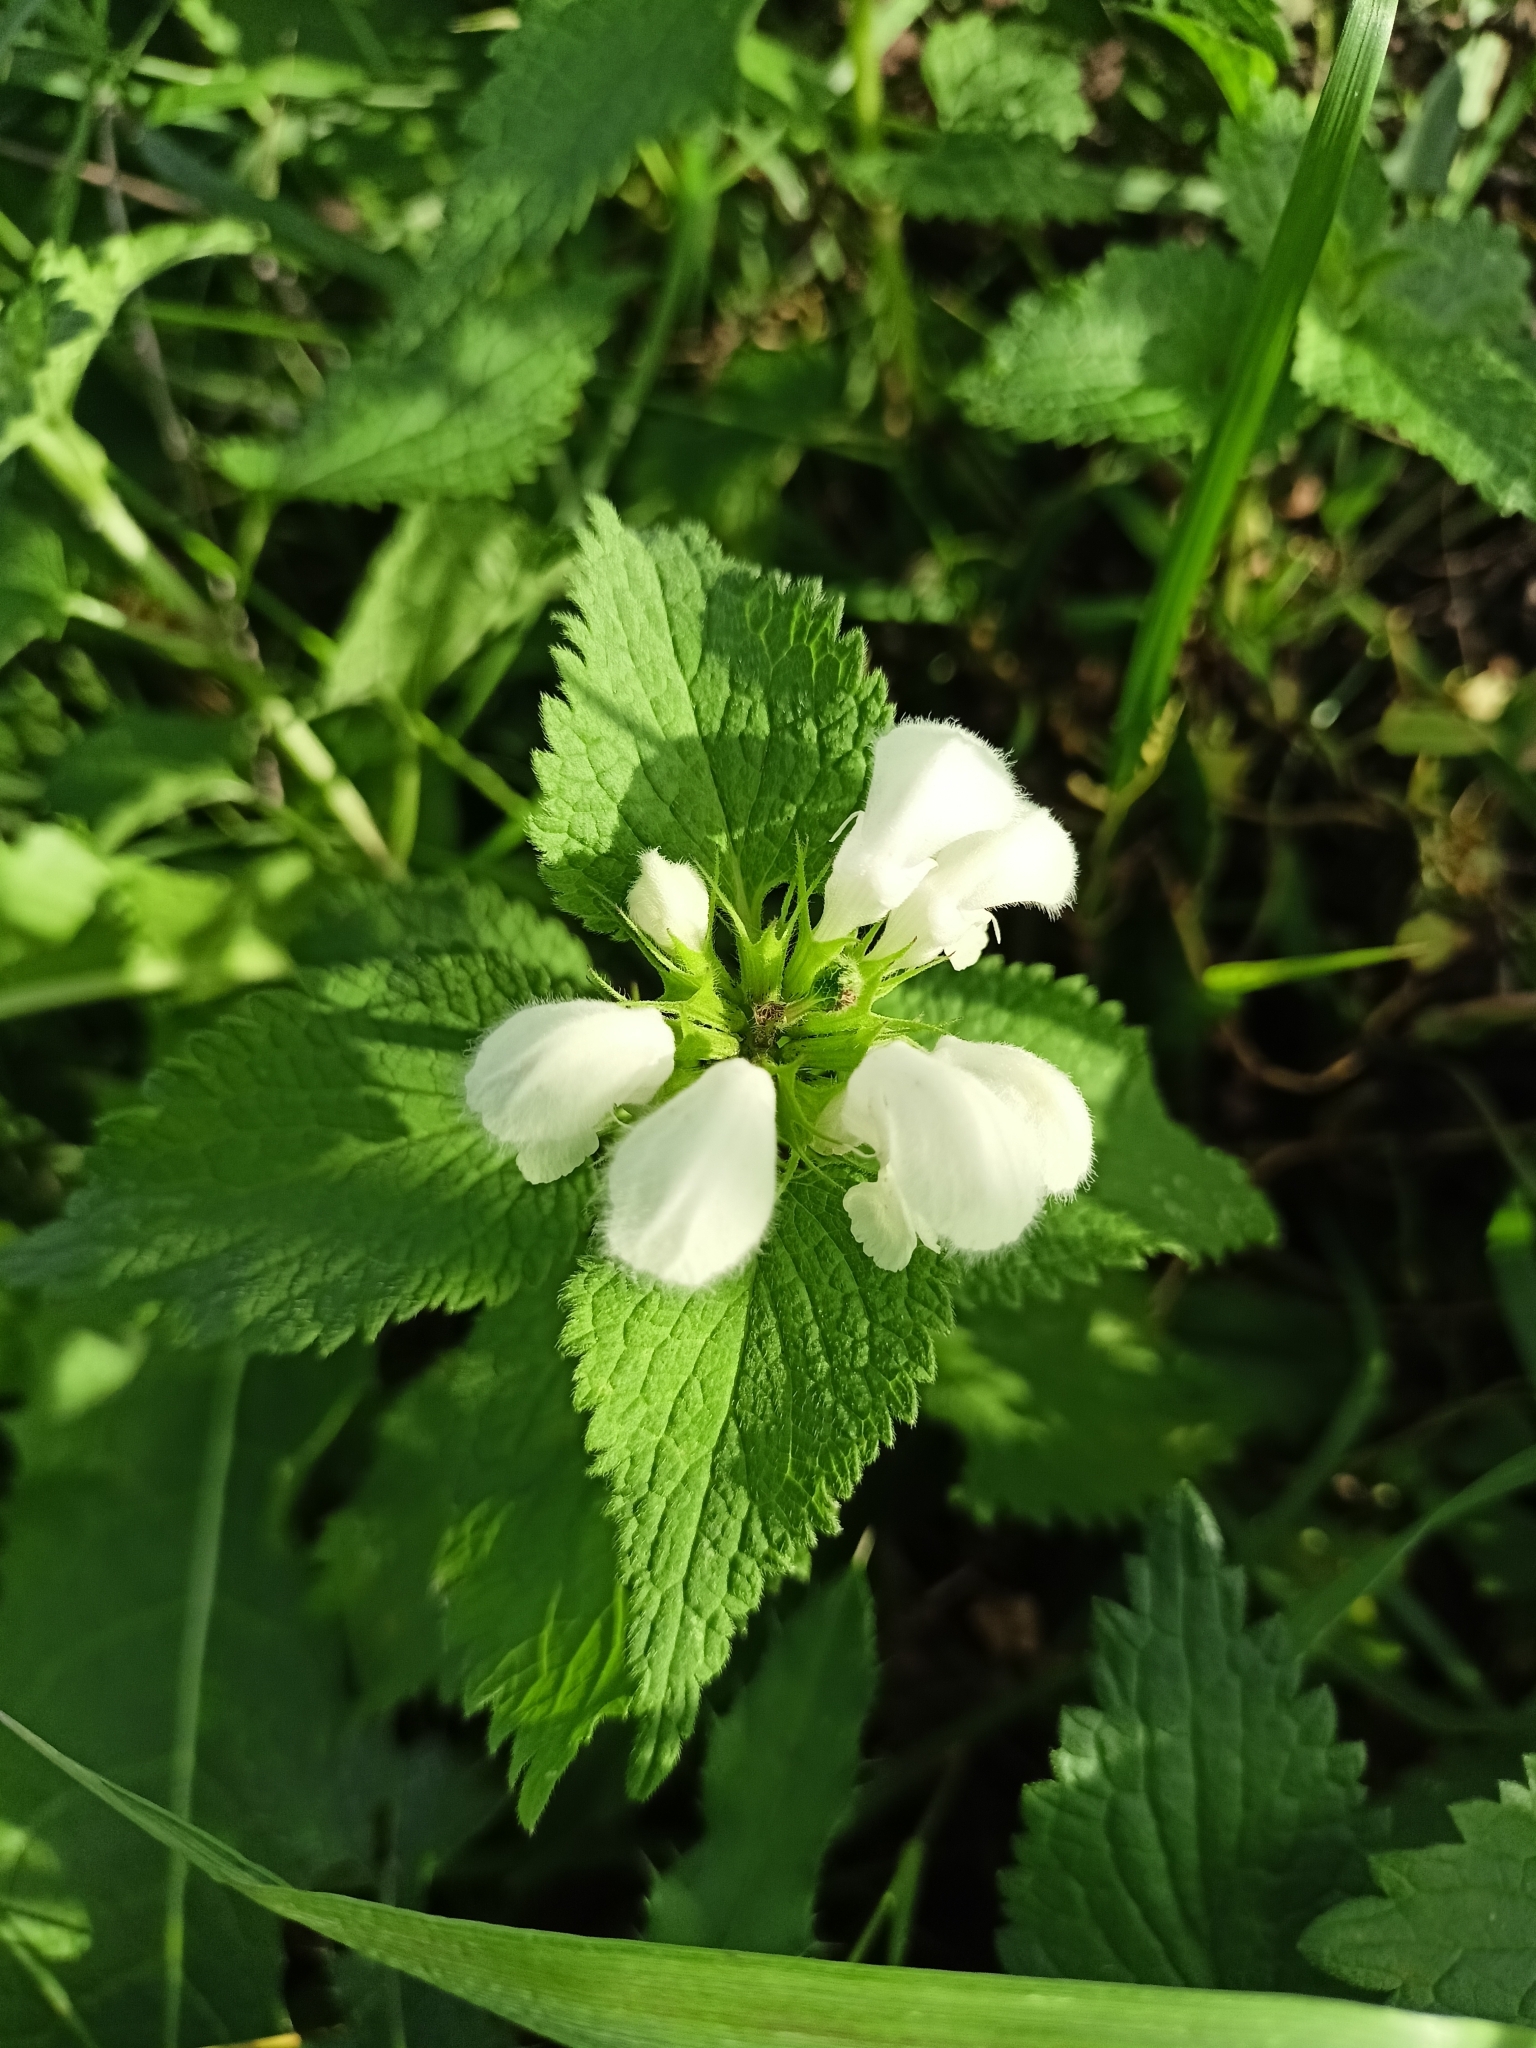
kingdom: Plantae
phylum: Tracheophyta
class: Magnoliopsida
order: Lamiales
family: Lamiaceae
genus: Lamium
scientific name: Lamium album
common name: White dead-nettle
